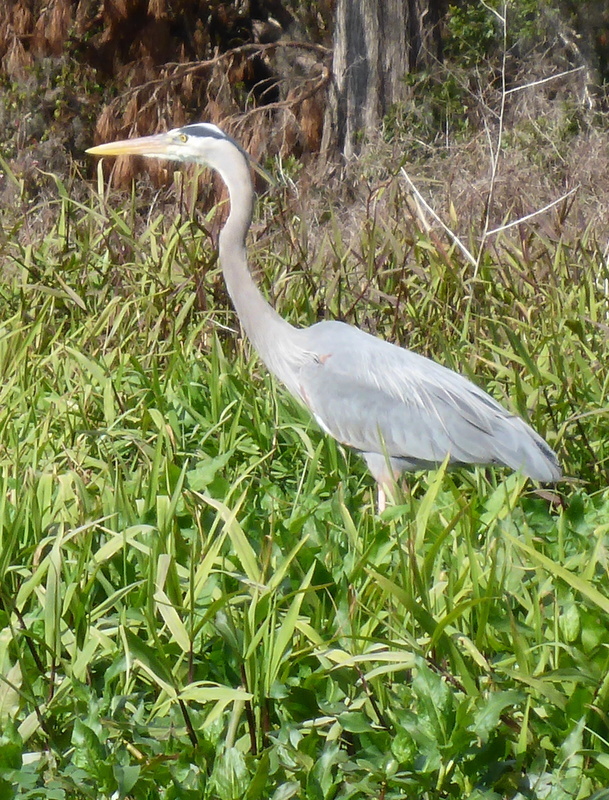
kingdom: Animalia
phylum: Chordata
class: Aves
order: Pelecaniformes
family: Ardeidae
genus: Ardea
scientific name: Ardea herodias
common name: Great blue heron
